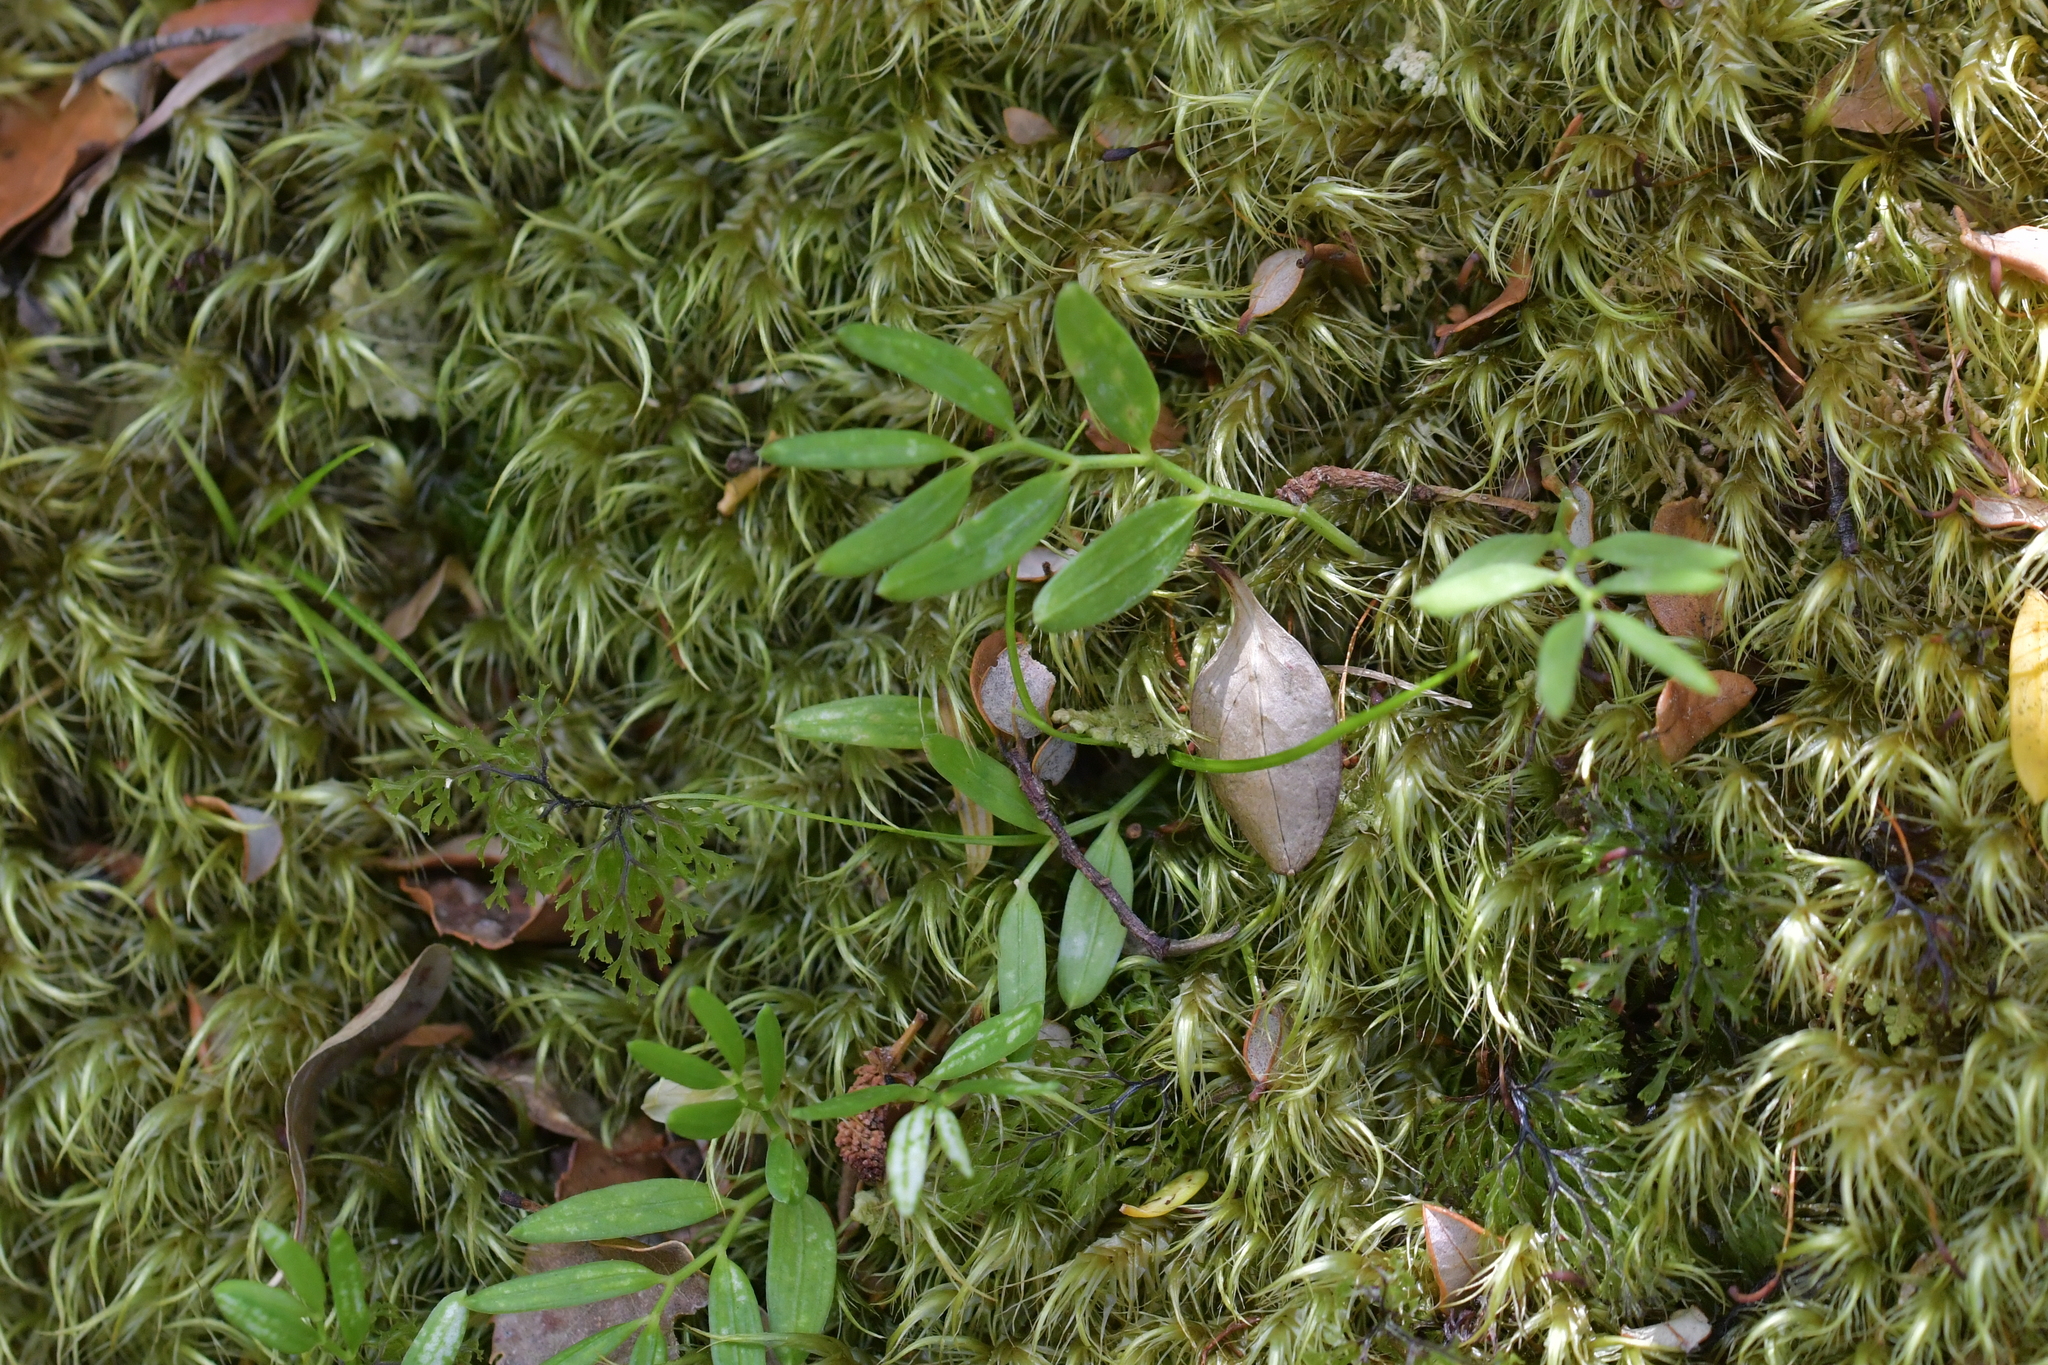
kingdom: Plantae
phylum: Tracheophyta
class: Liliopsida
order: Liliales
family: Alstroemeriaceae
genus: Luzuriaga
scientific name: Luzuriaga parviflora
